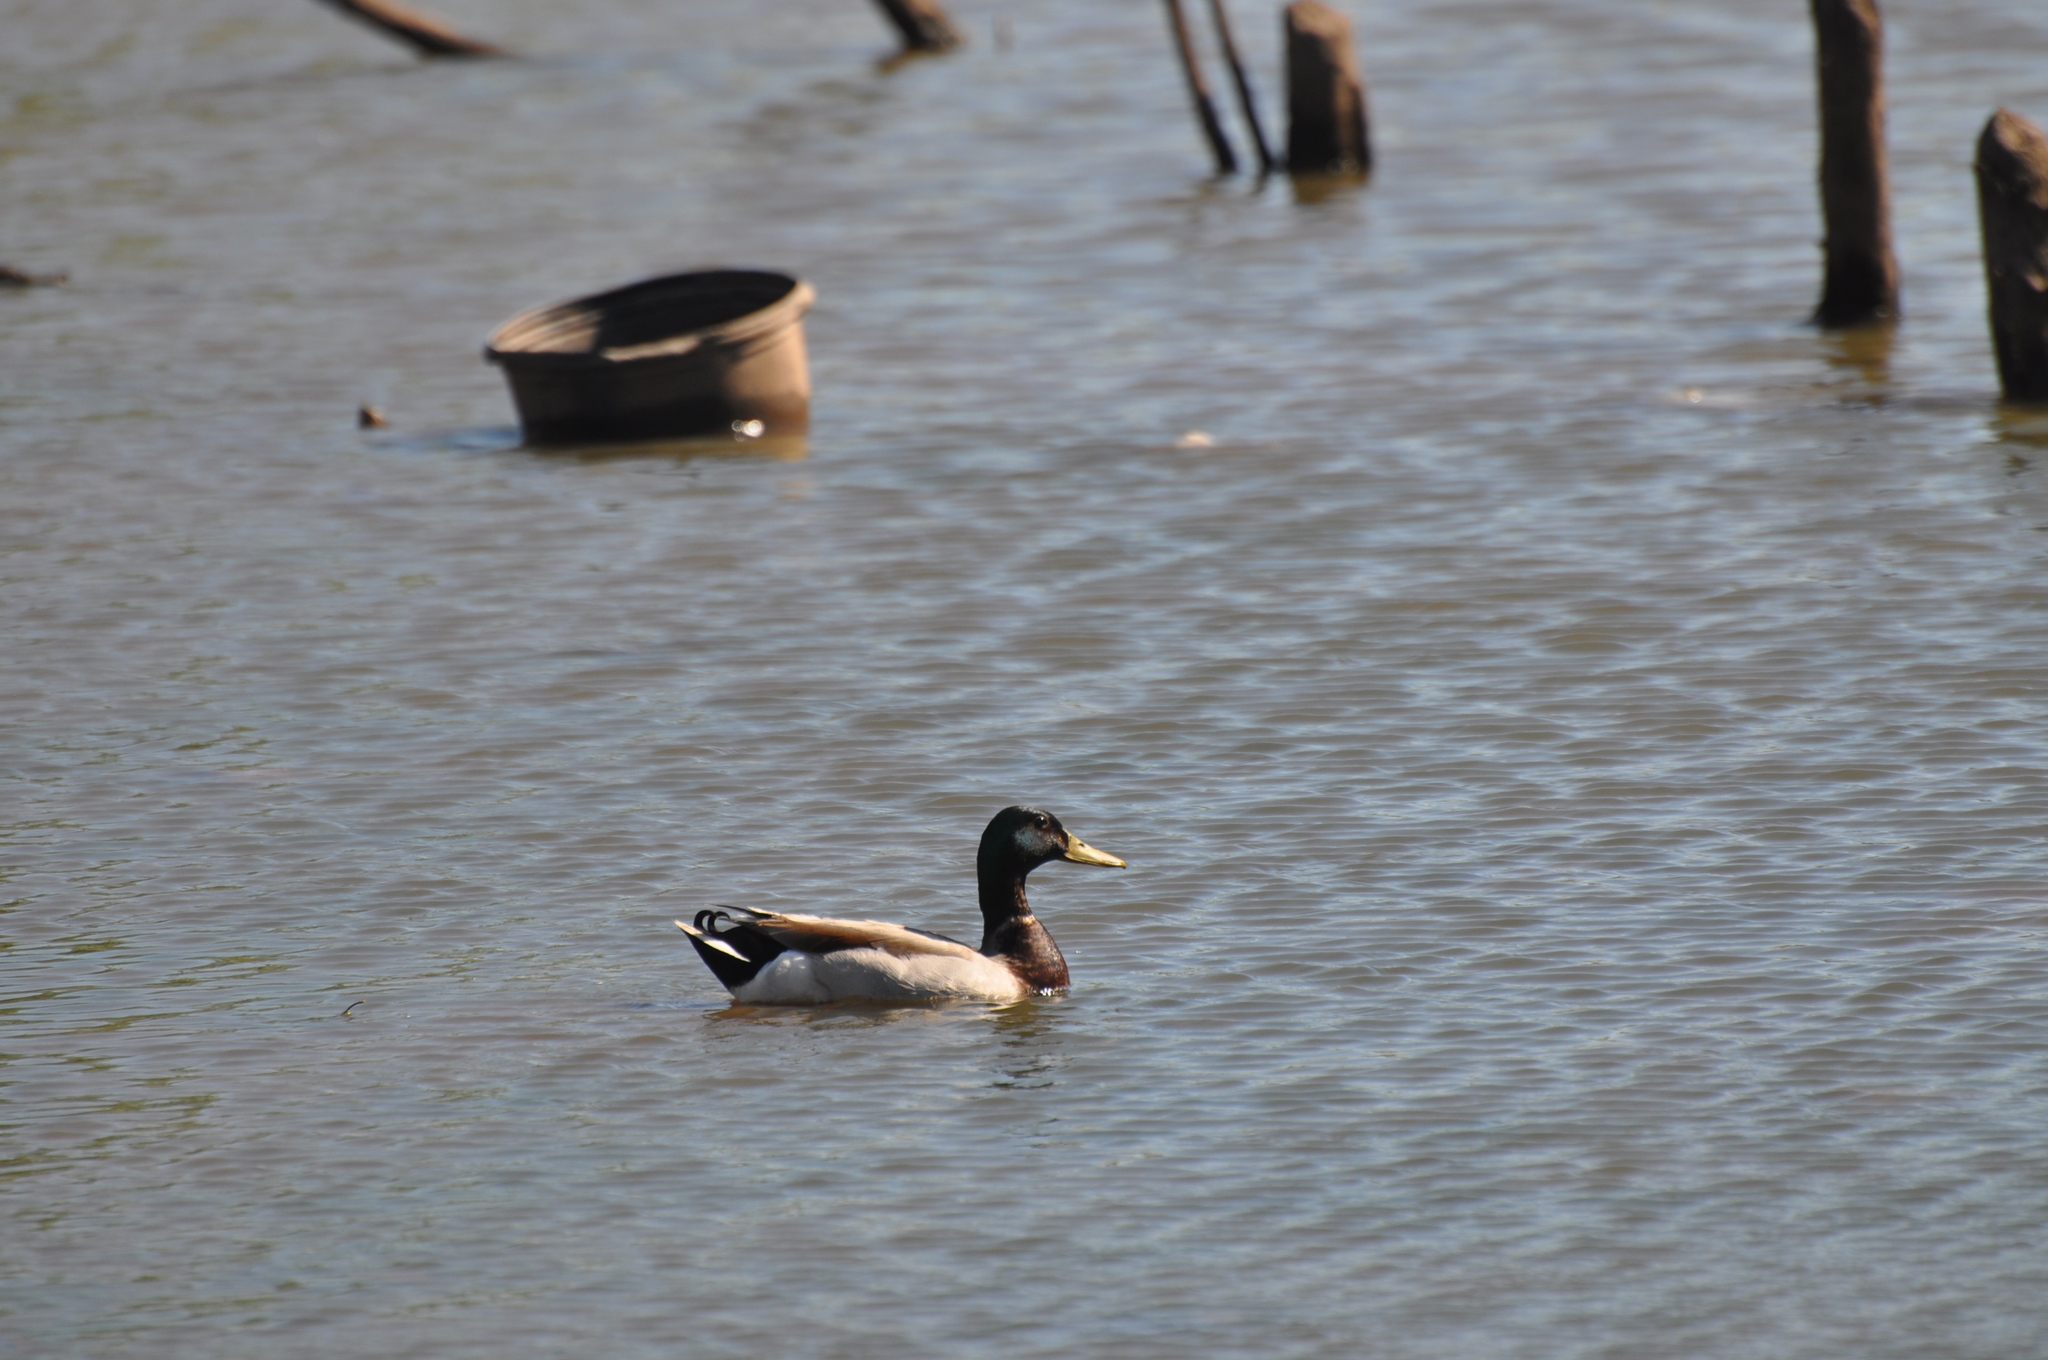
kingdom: Animalia
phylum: Chordata
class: Aves
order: Anseriformes
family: Anatidae
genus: Anas
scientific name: Anas platyrhynchos
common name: Mallard
